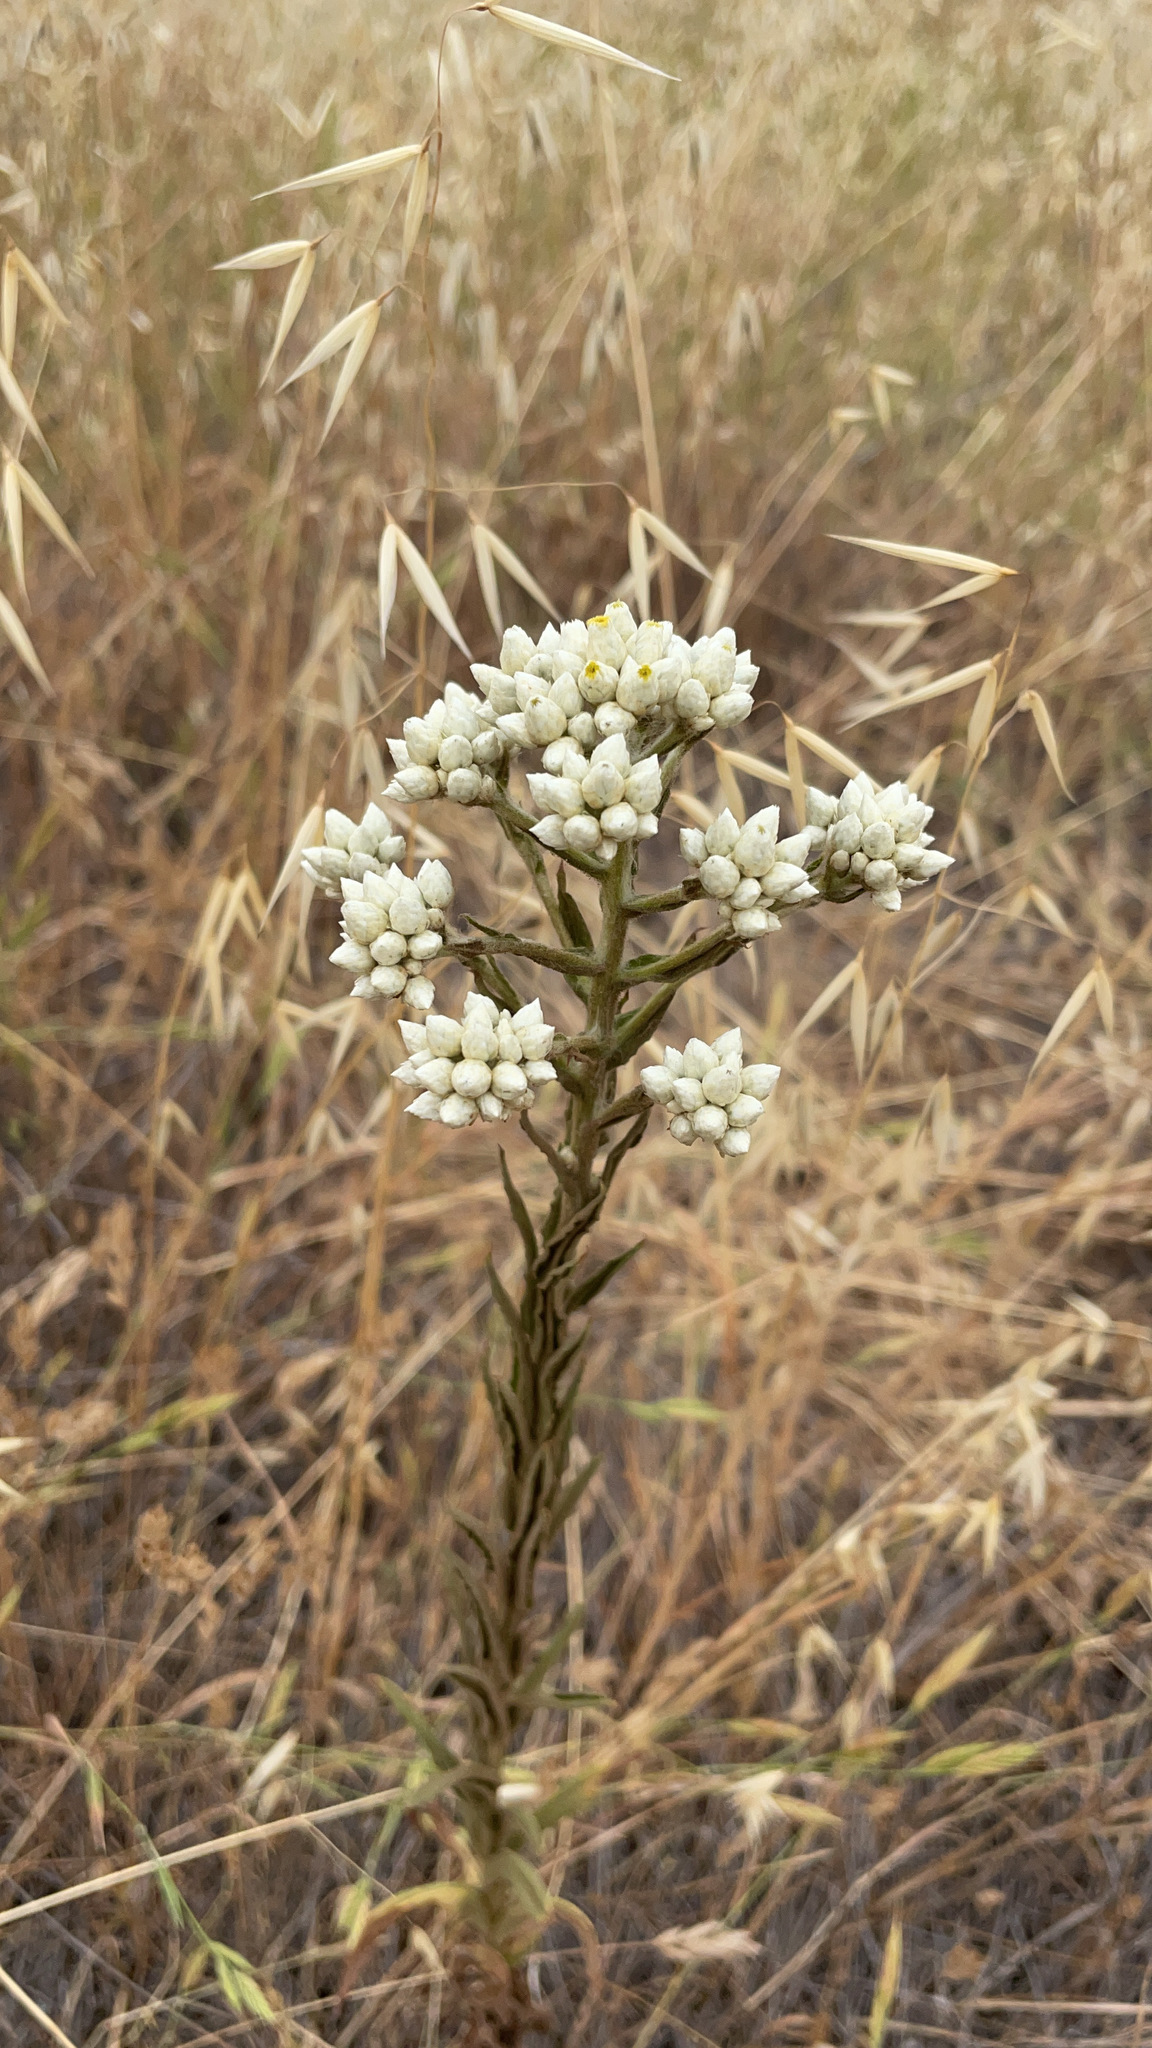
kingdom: Plantae
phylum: Tracheophyta
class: Magnoliopsida
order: Asterales
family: Asteraceae
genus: Pseudognaphalium
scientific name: Pseudognaphalium californicum
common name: California rabbit-tobacco
